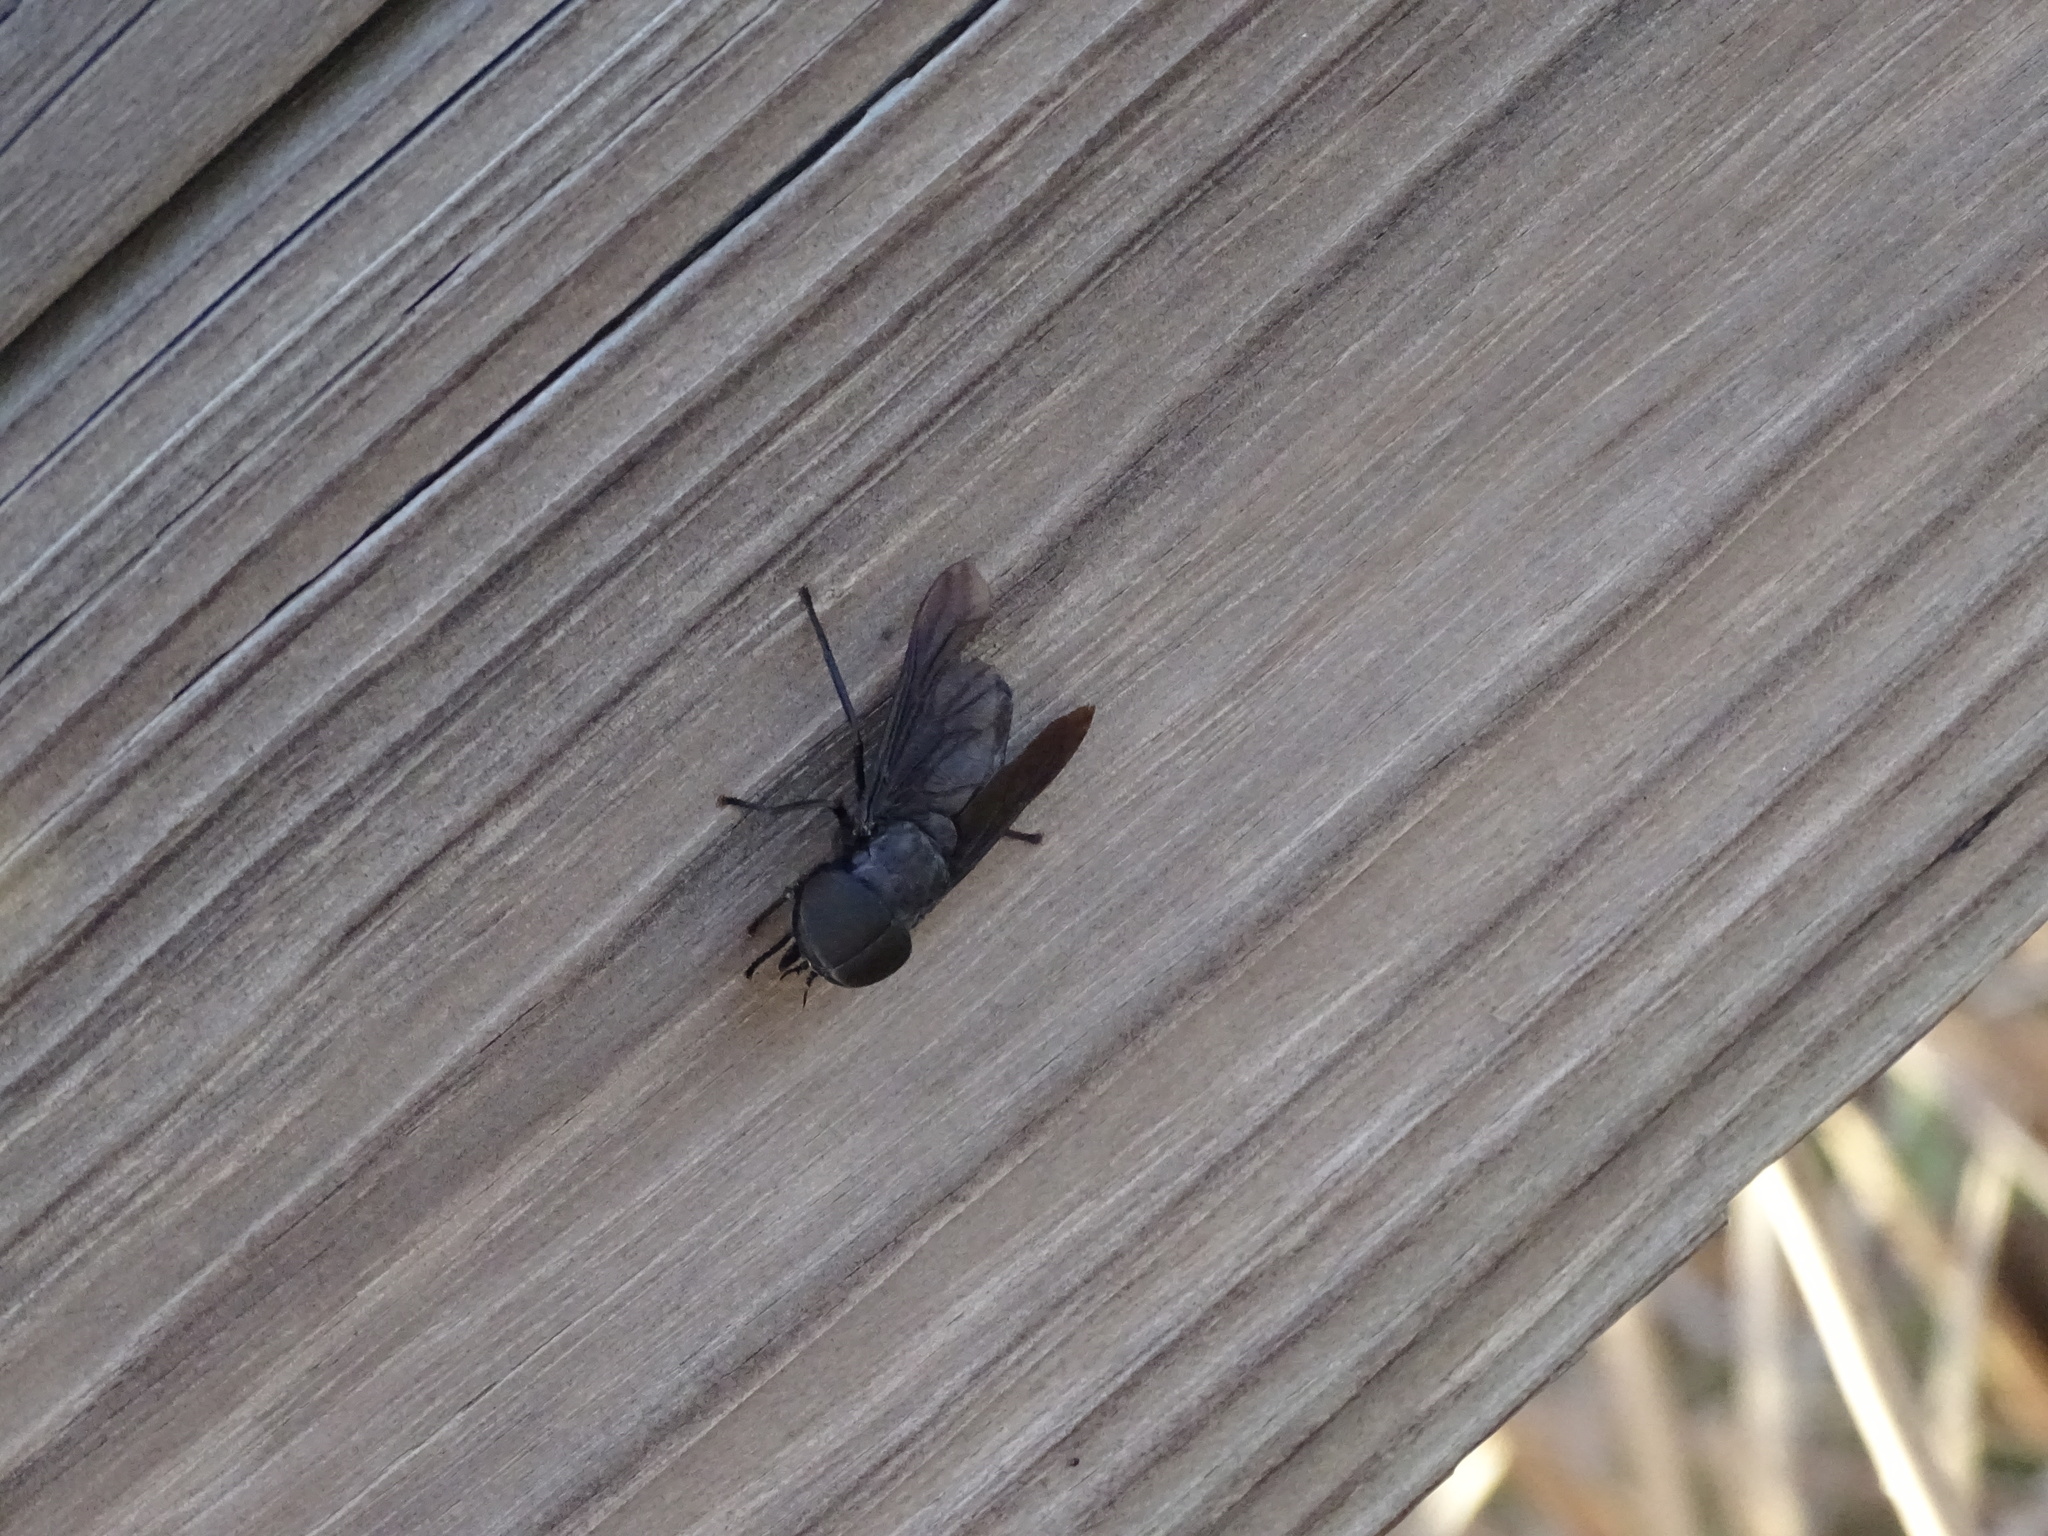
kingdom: Animalia
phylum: Arthropoda
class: Insecta
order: Diptera
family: Tabanidae
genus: Tabanus
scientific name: Tabanus atratus
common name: Black horse fly
